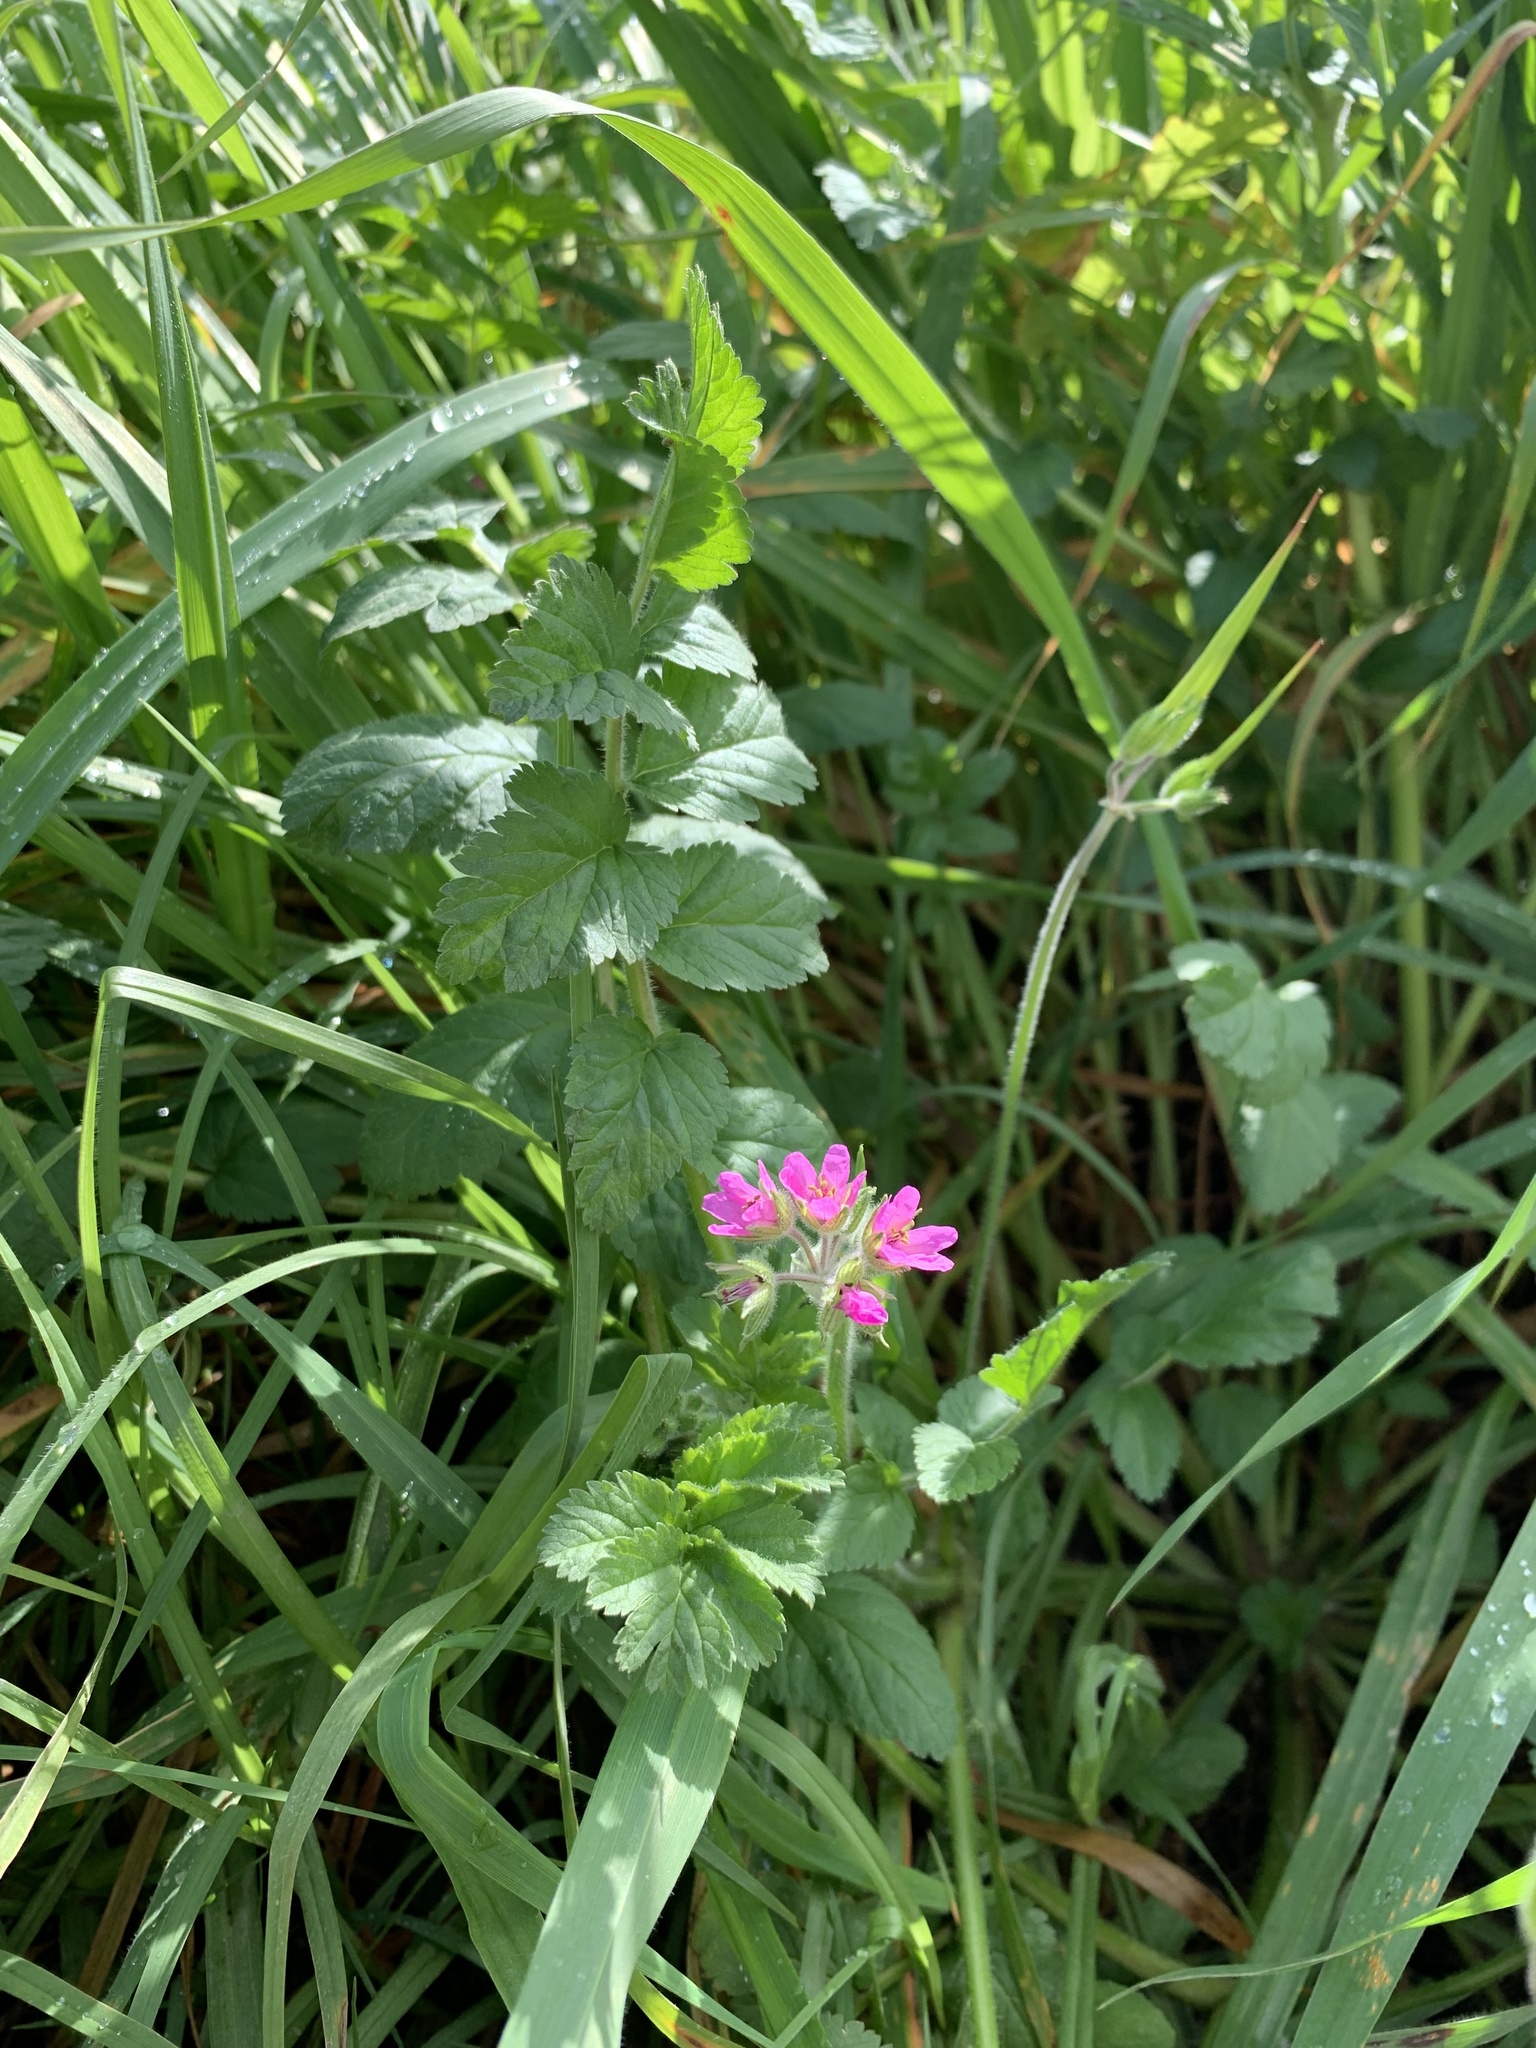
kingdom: Plantae
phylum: Tracheophyta
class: Magnoliopsida
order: Geraniales
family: Geraniaceae
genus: Erodium
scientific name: Erodium moschatum
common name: Musk stork's-bill
